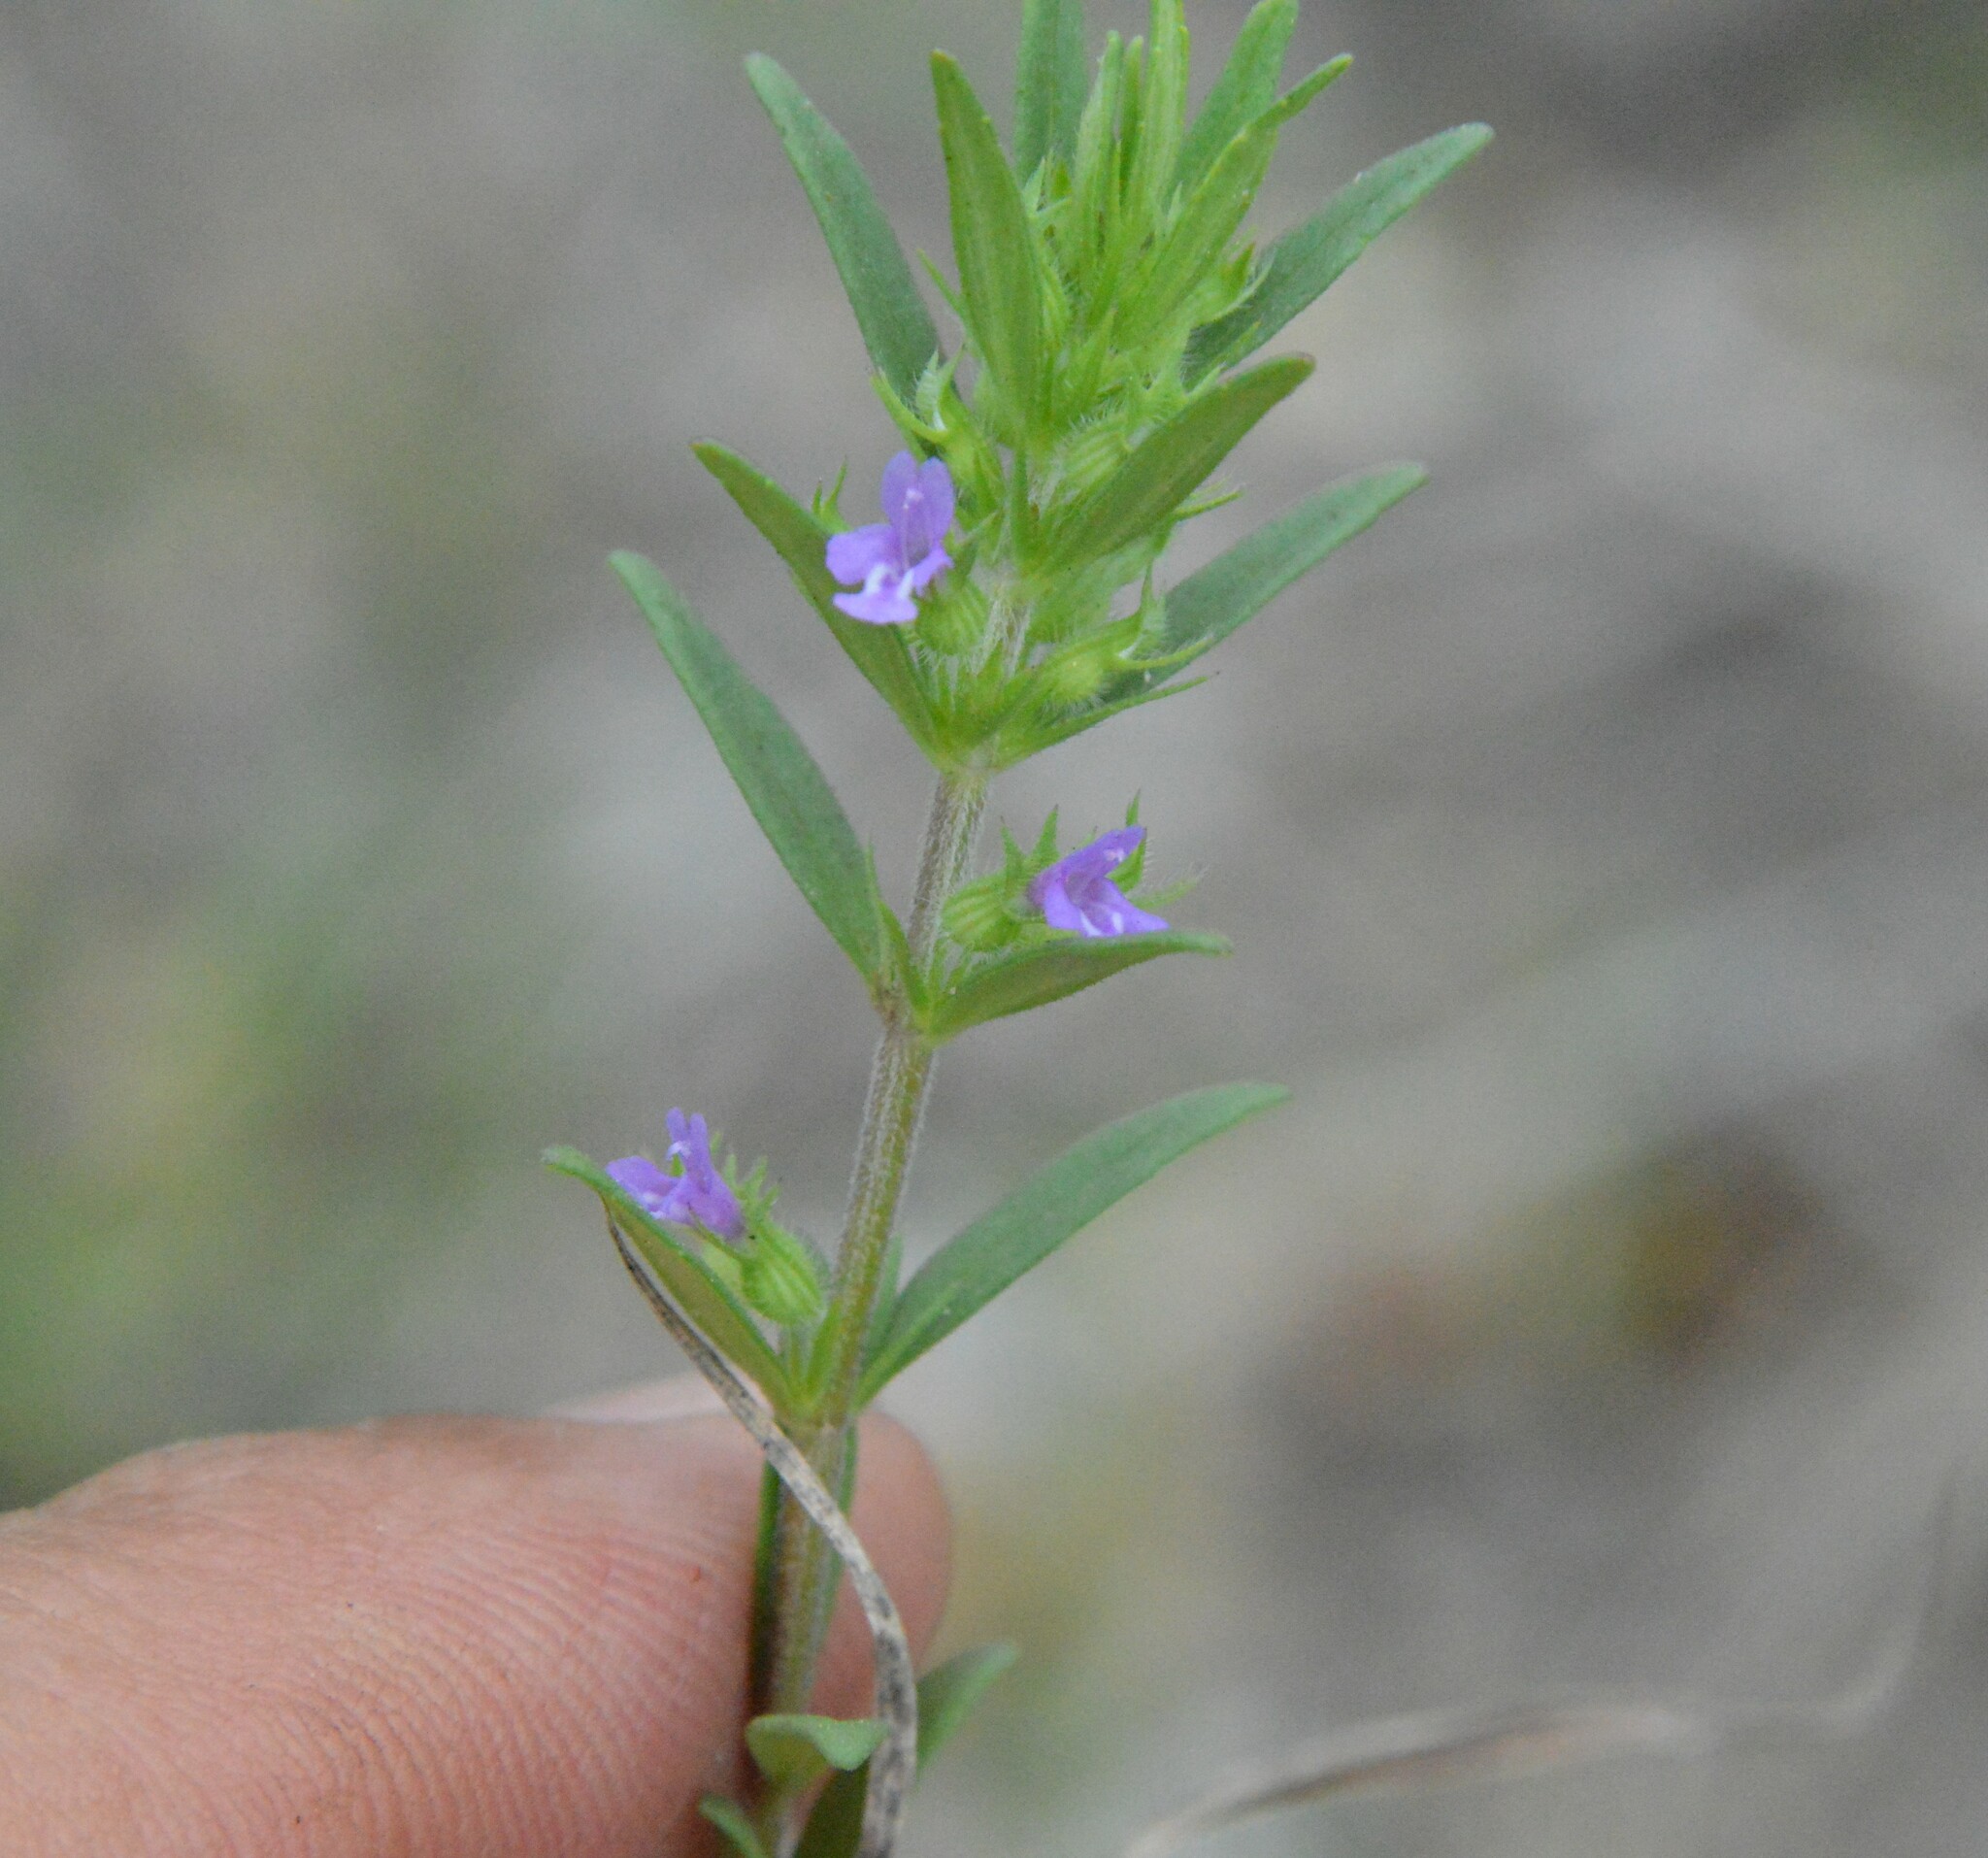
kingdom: Plantae
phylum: Tracheophyta
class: Magnoliopsida
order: Lamiales
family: Lamiaceae
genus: Hedeoma
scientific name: Hedeoma hispida
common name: Mock pennyroyal
